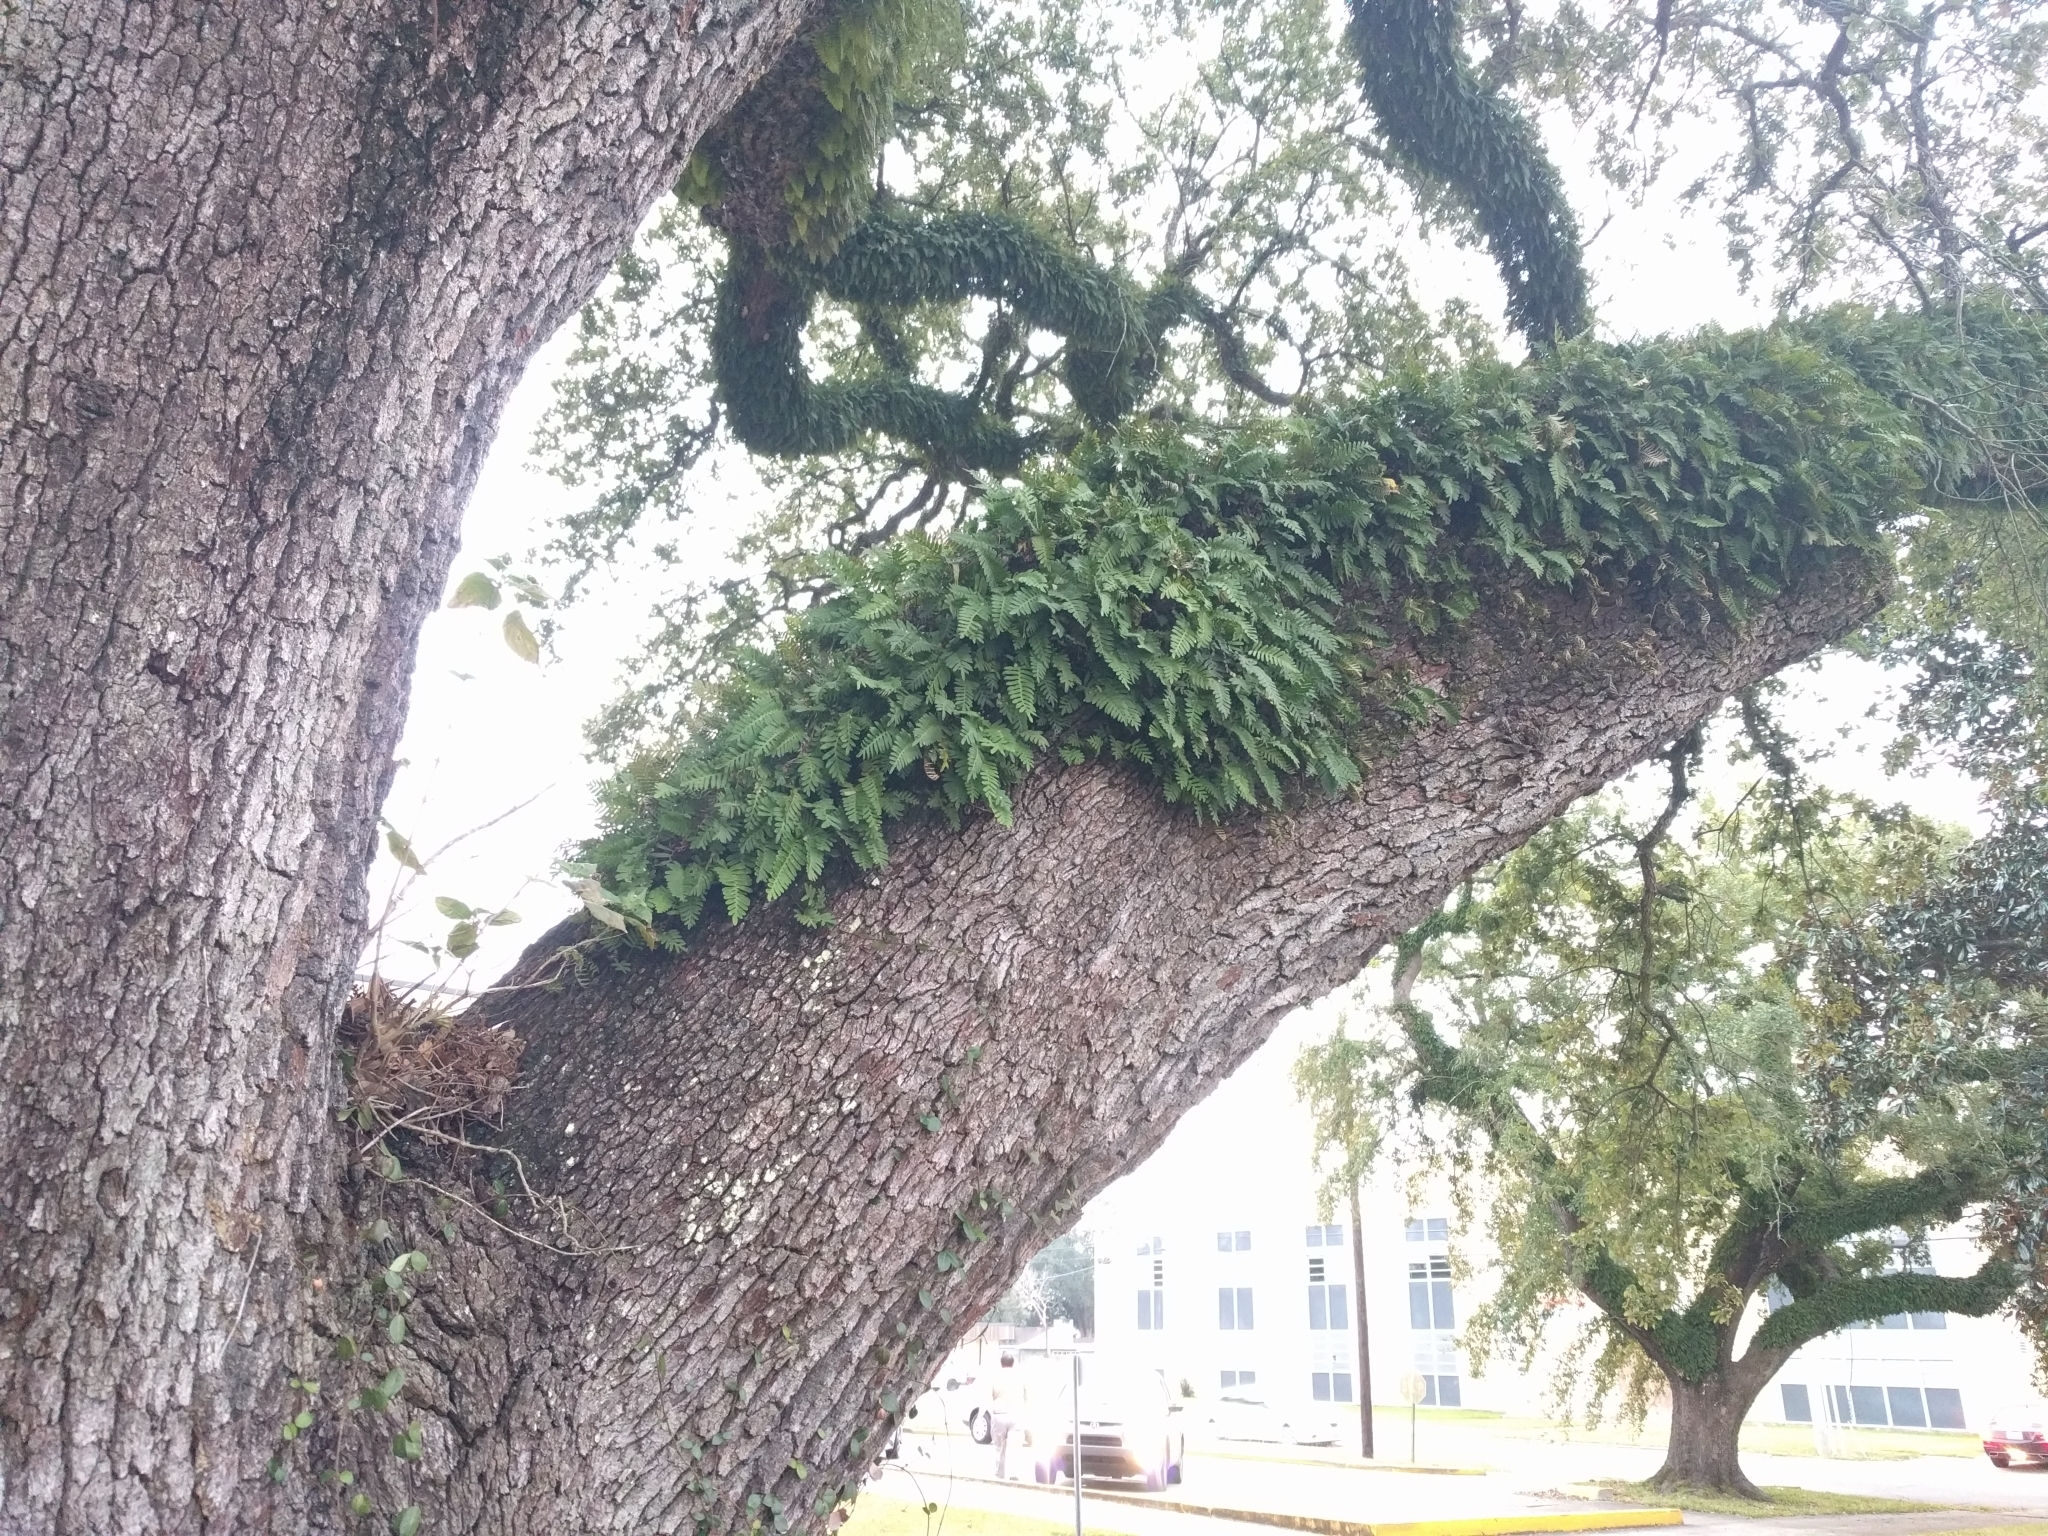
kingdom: Plantae
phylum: Tracheophyta
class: Polypodiopsida
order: Polypodiales
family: Polypodiaceae
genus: Pleopeltis
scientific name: Pleopeltis michauxiana
